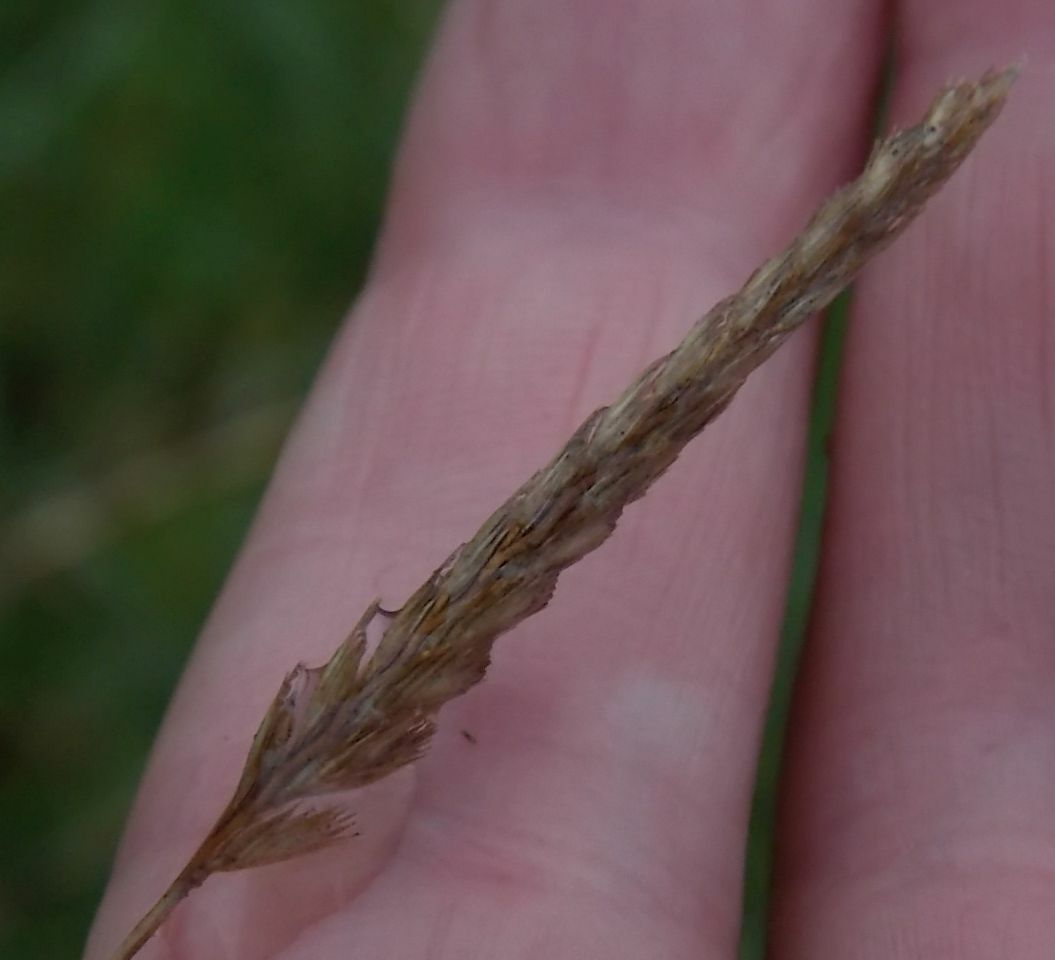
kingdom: Plantae
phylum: Tracheophyta
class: Liliopsida
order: Poales
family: Poaceae
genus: Cynosurus
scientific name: Cynosurus cristatus
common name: Crested dog's-tail
